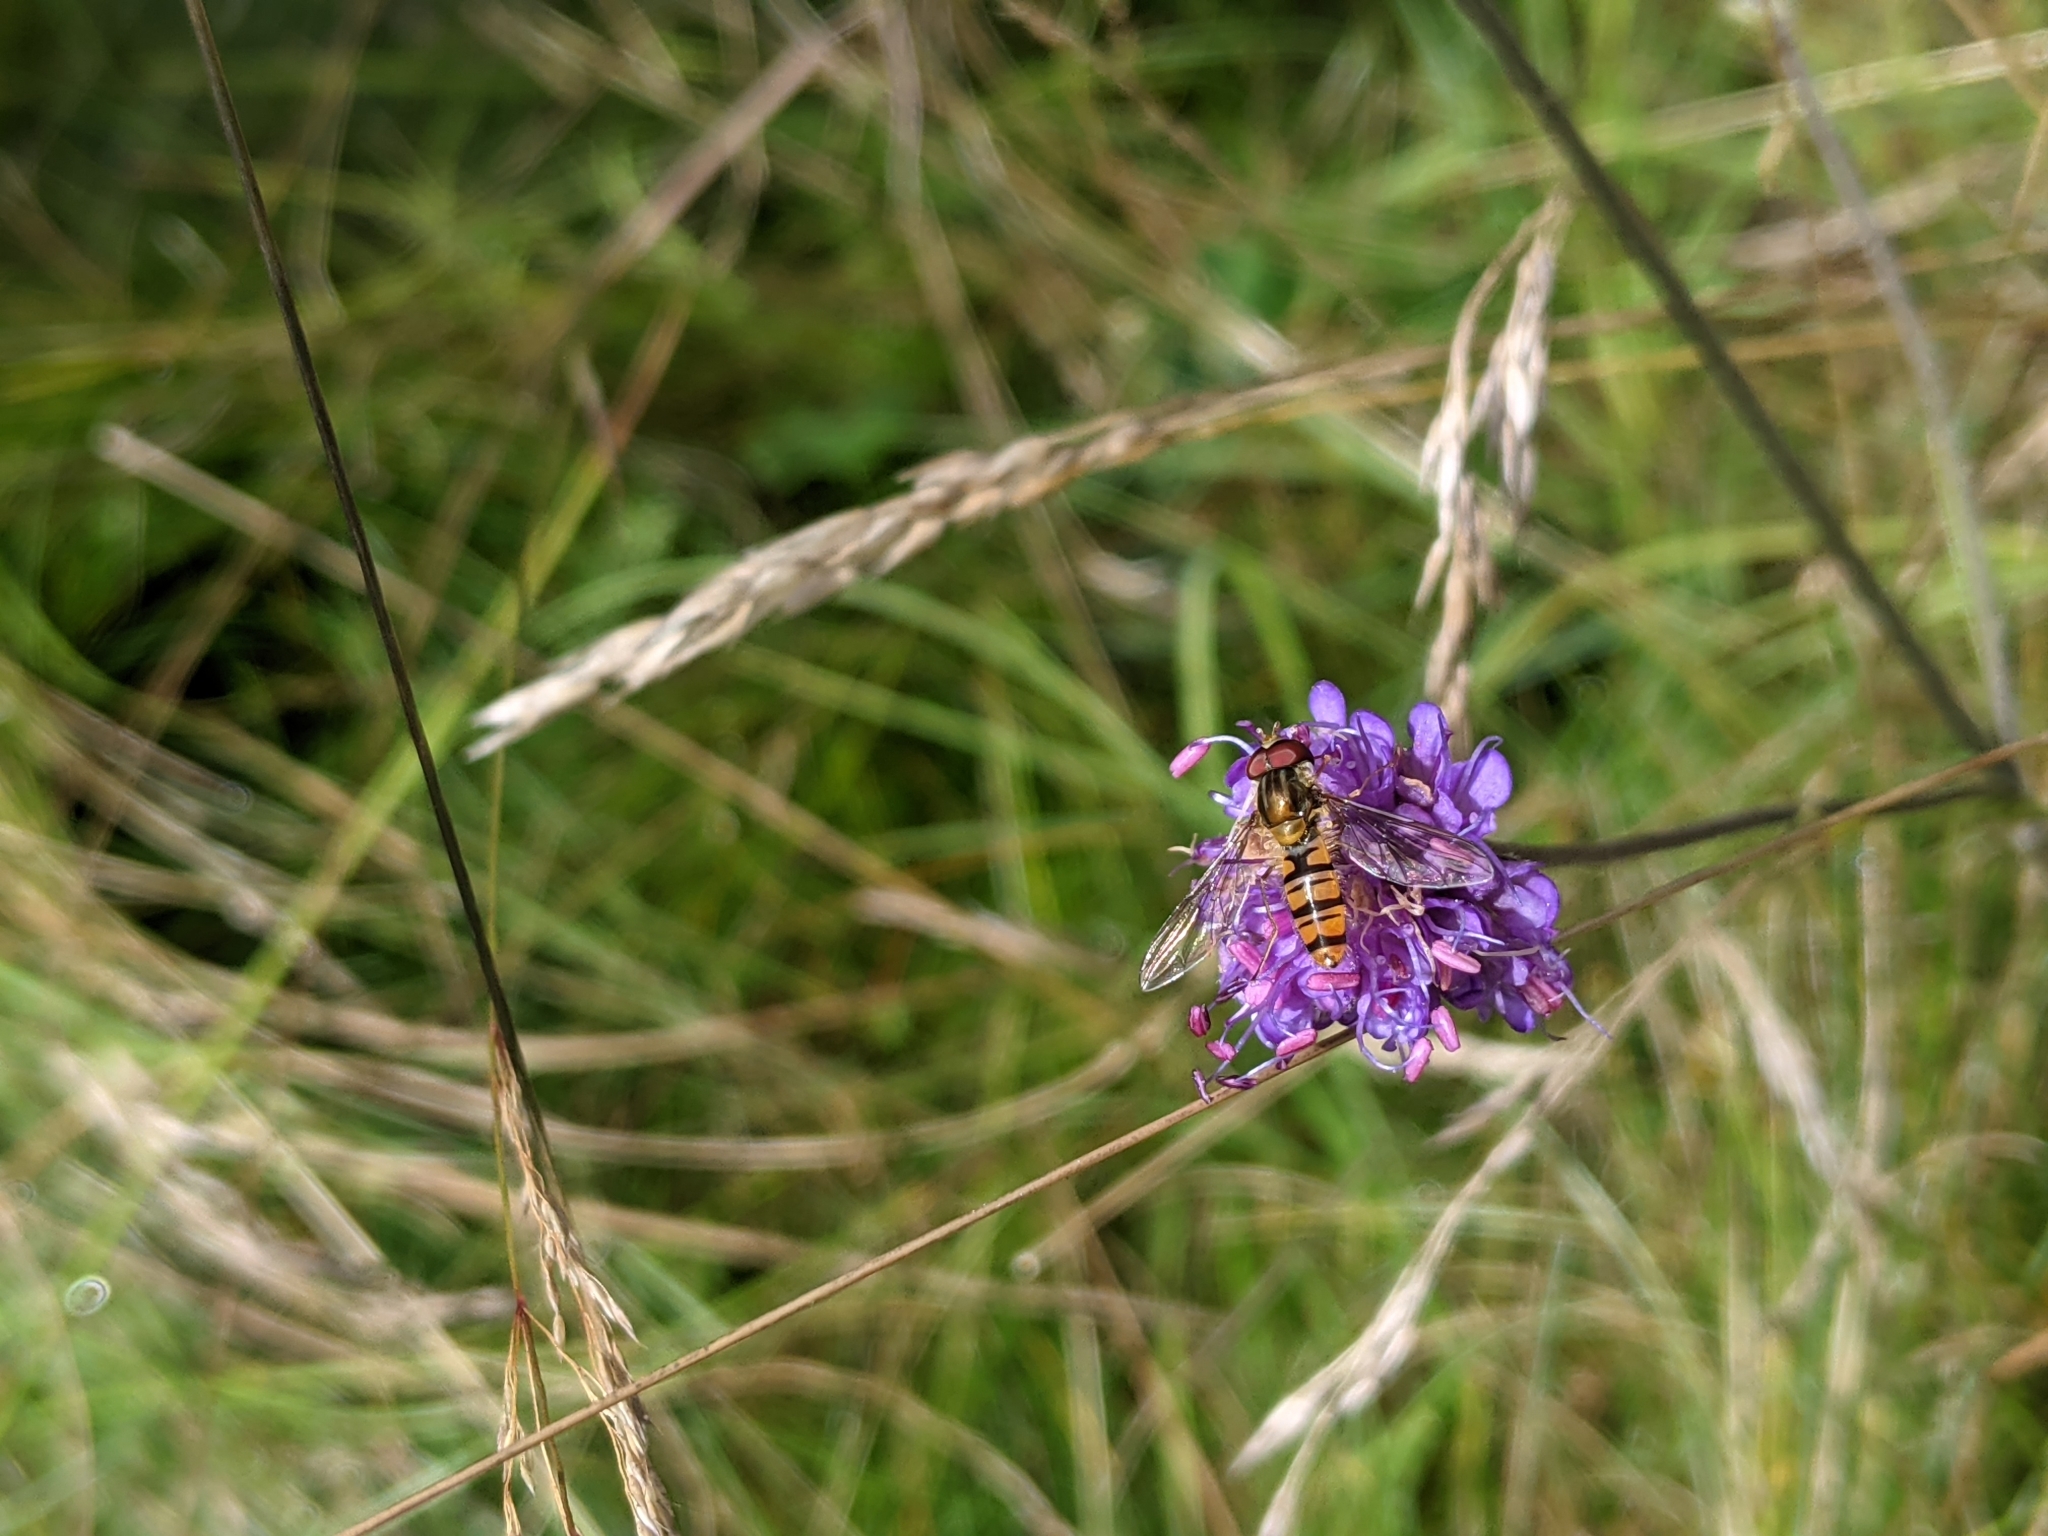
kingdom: Animalia
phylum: Arthropoda
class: Insecta
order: Diptera
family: Syrphidae
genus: Episyrphus
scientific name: Episyrphus balteatus
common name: Marmalade hoverfly
